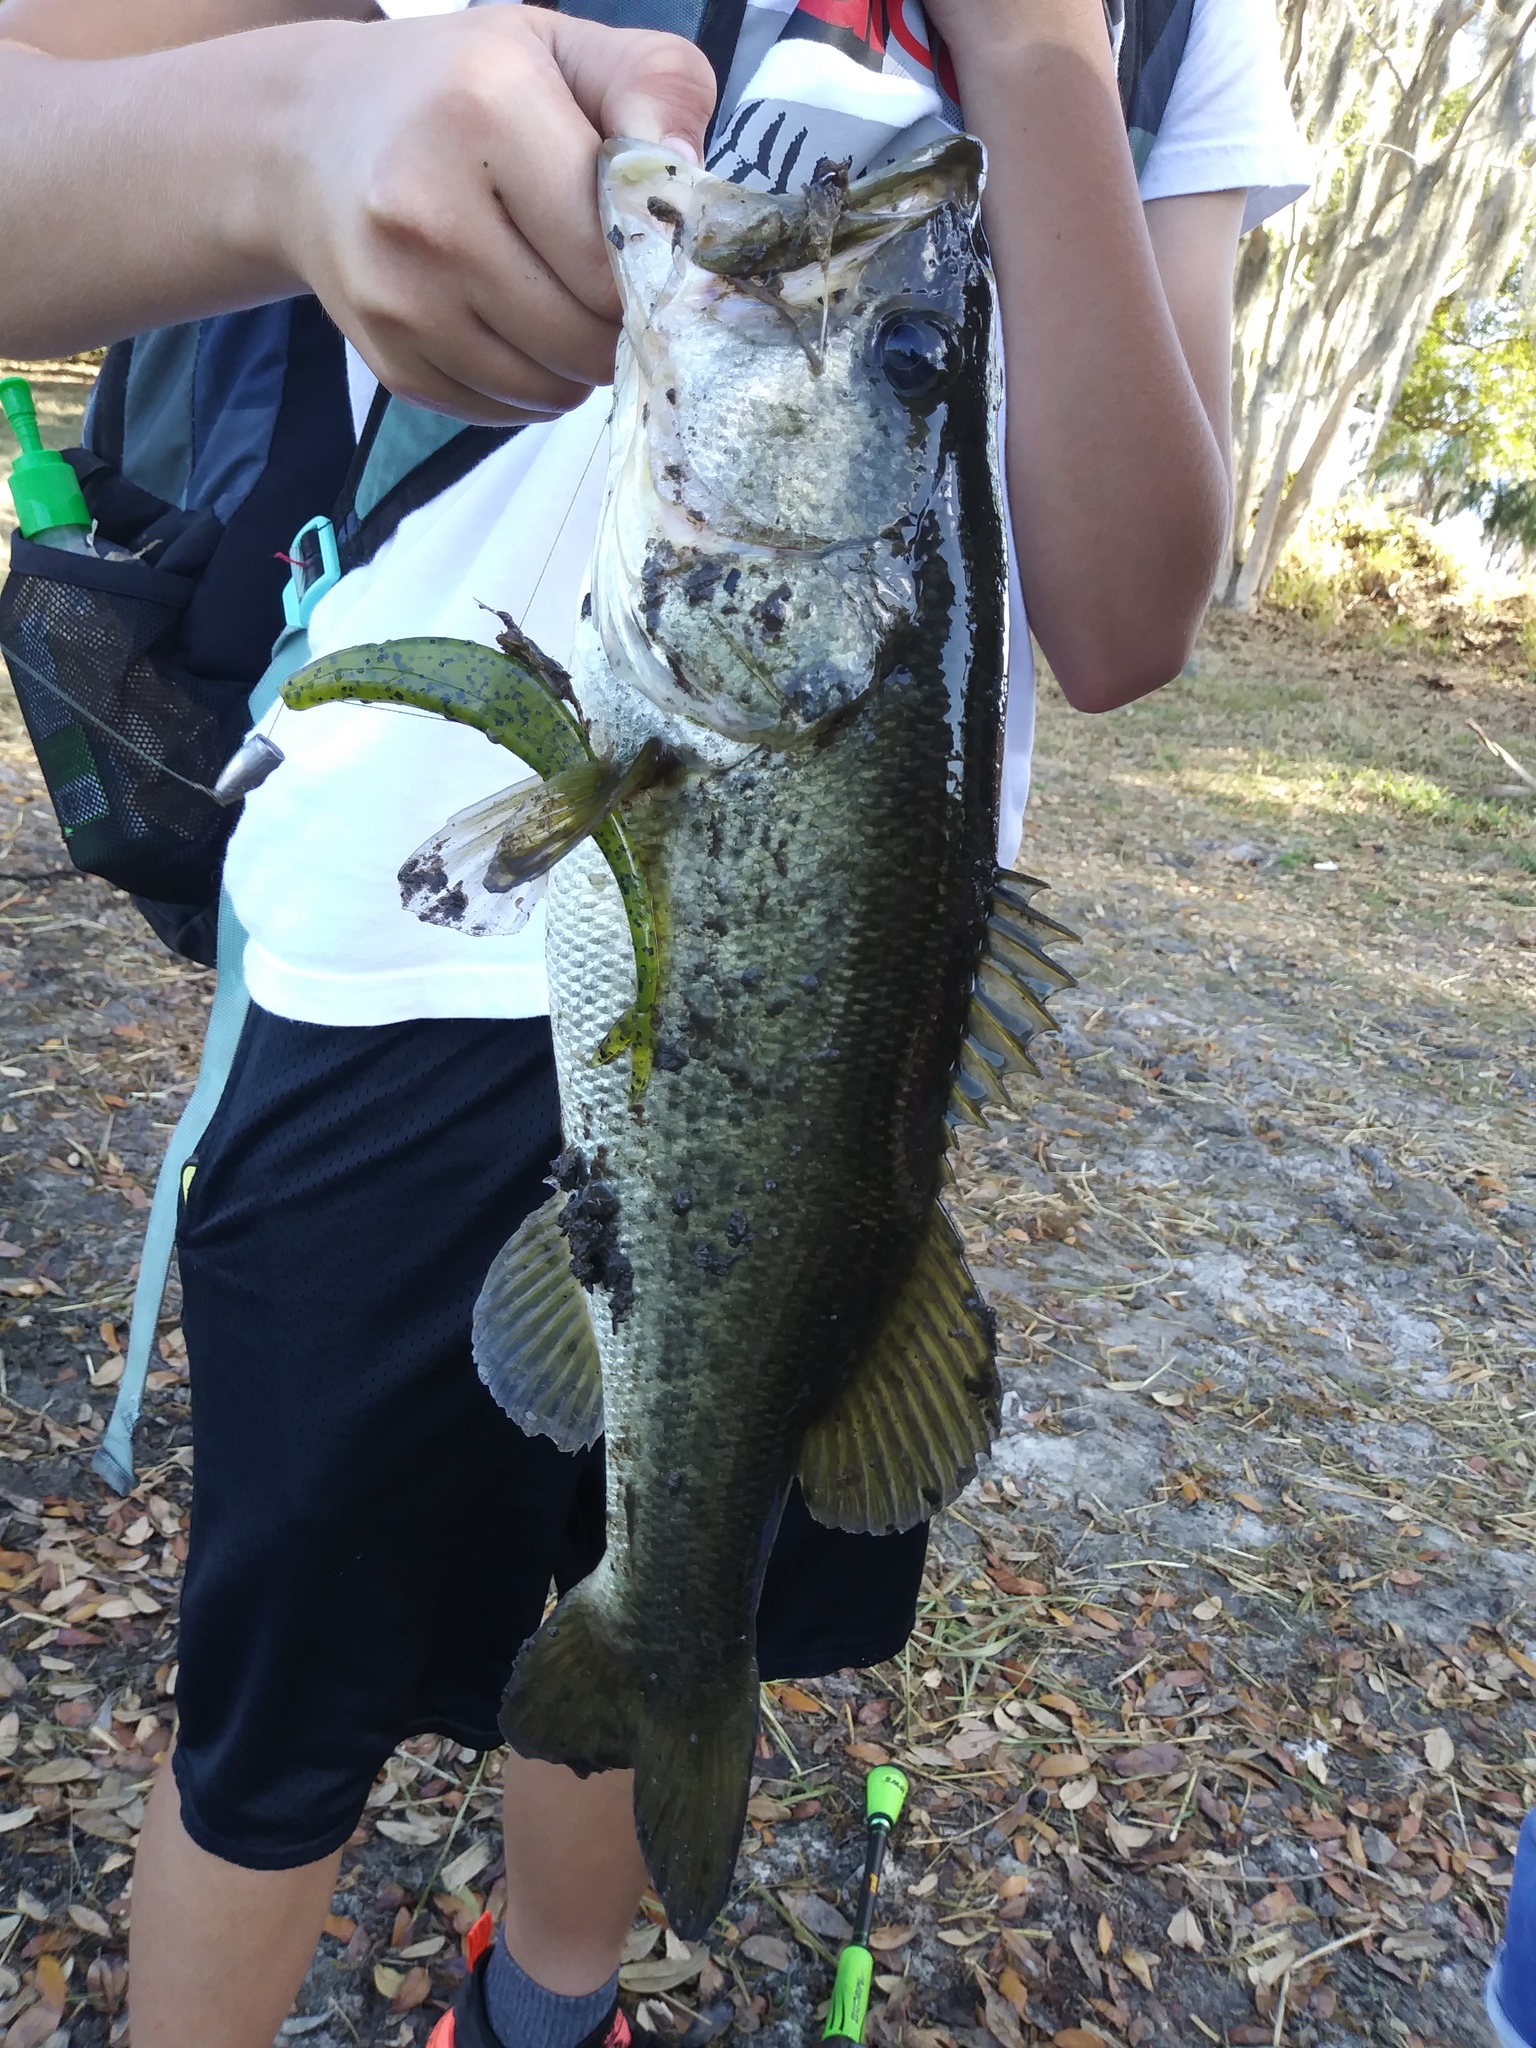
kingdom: Animalia
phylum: Chordata
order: Perciformes
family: Centrarchidae
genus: Micropterus
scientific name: Micropterus salmoides
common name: Largemouth bass
